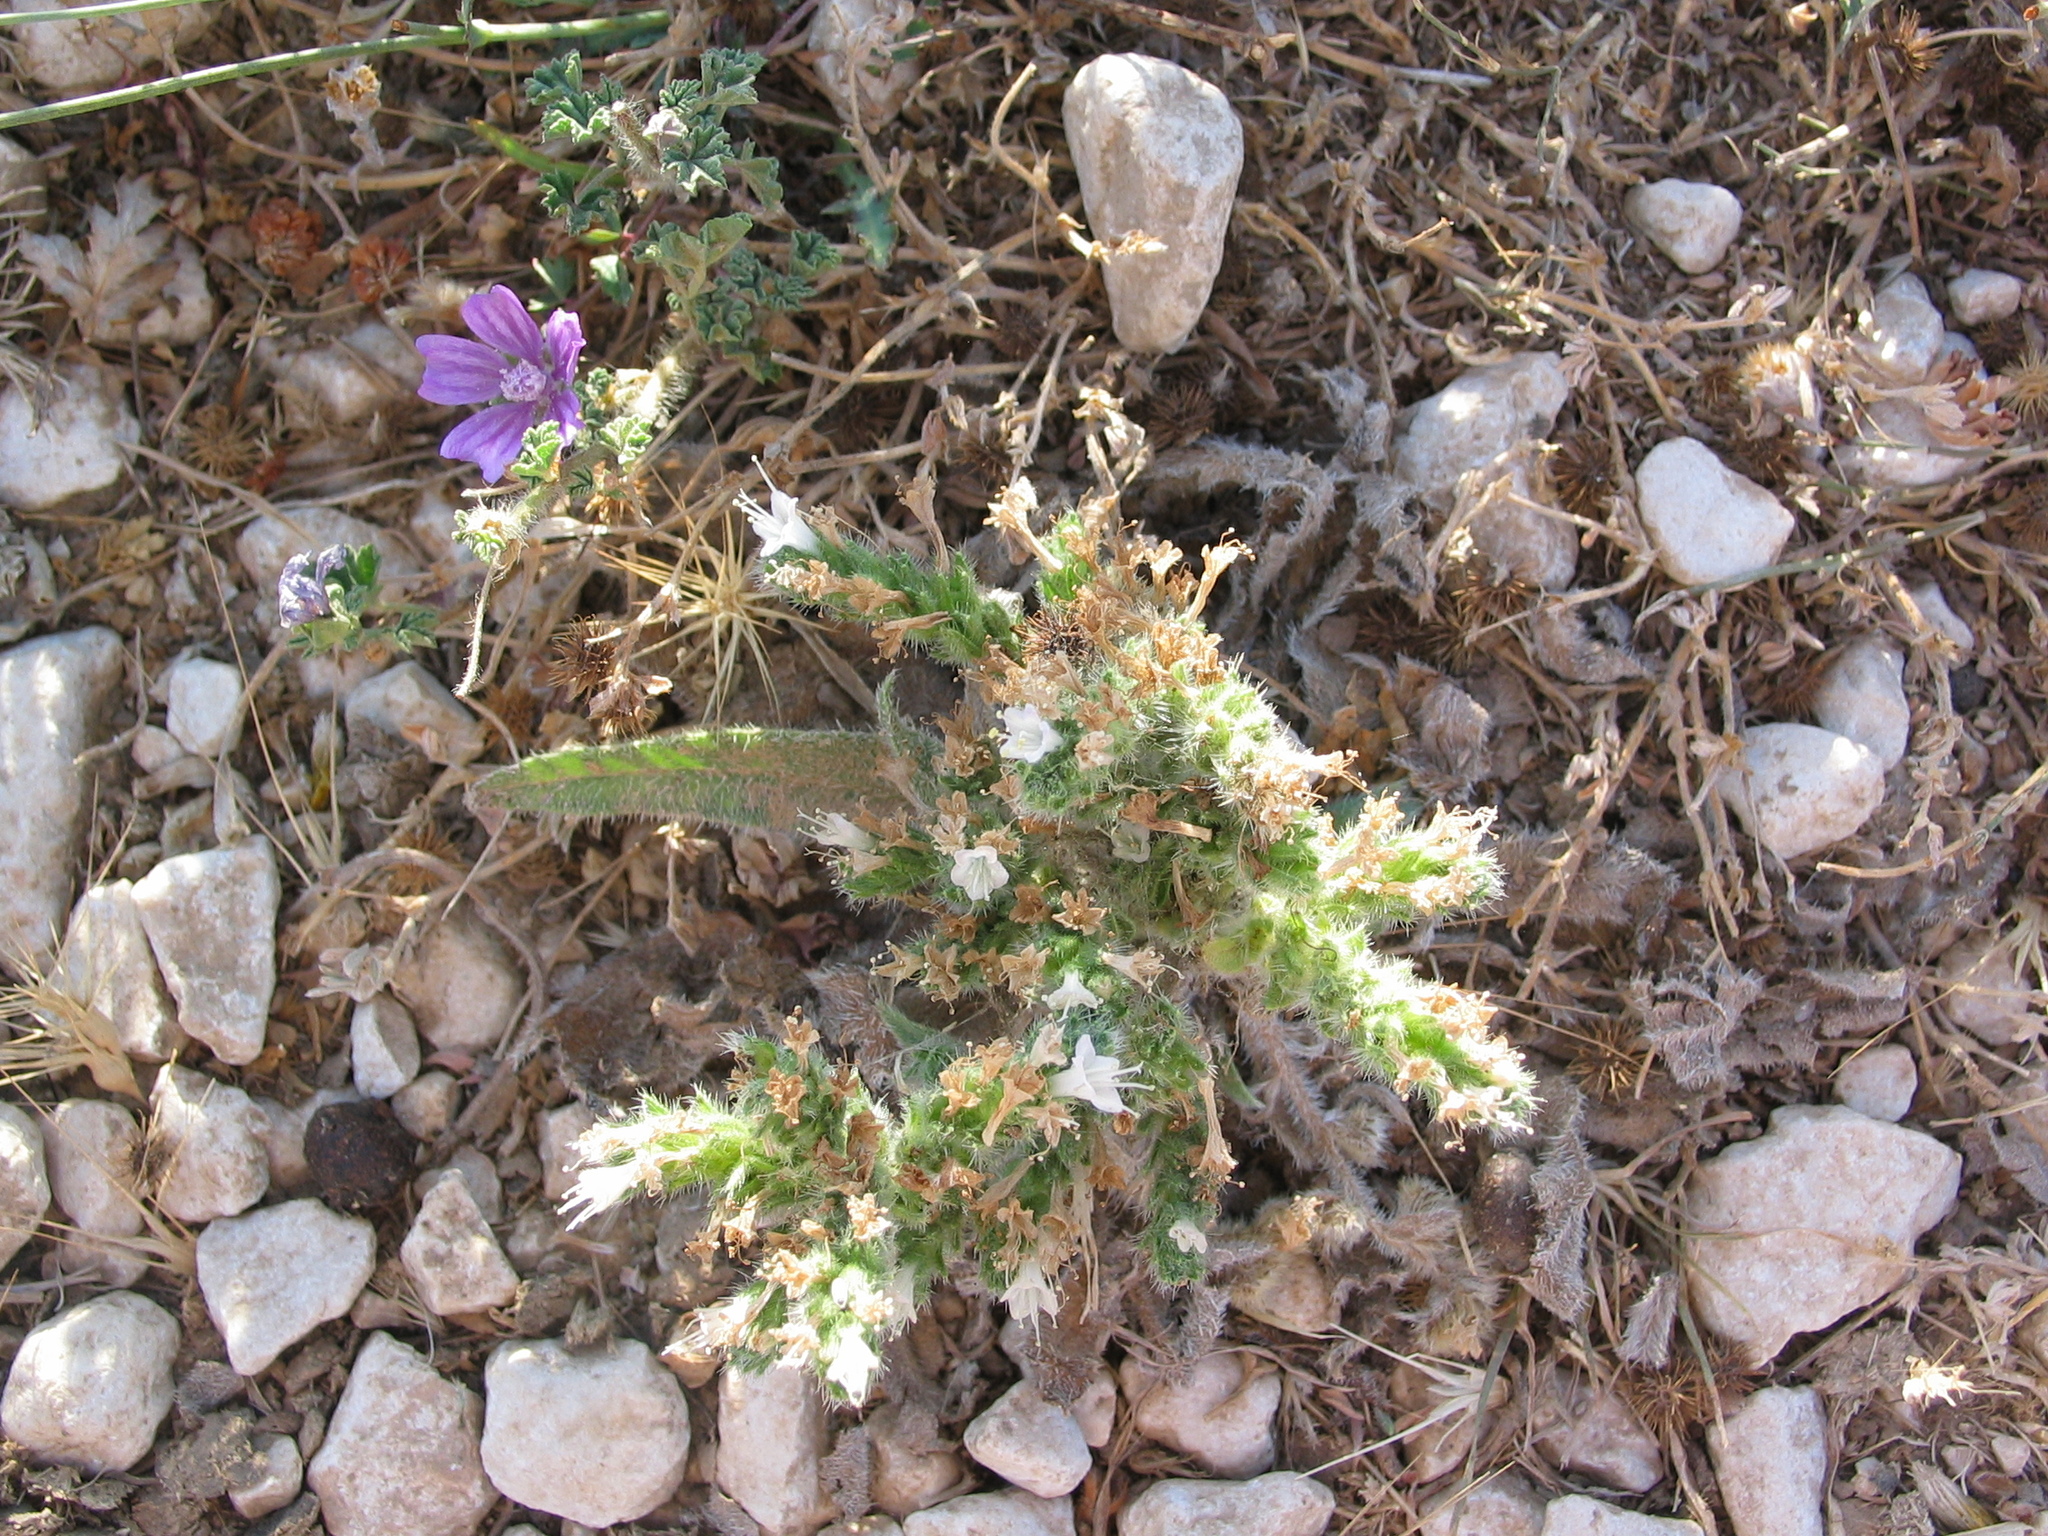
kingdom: Plantae
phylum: Tracheophyta
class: Magnoliopsida
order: Boraginales
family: Boraginaceae
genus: Echium
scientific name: Echium italicum
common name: Italian viper's bugloss
